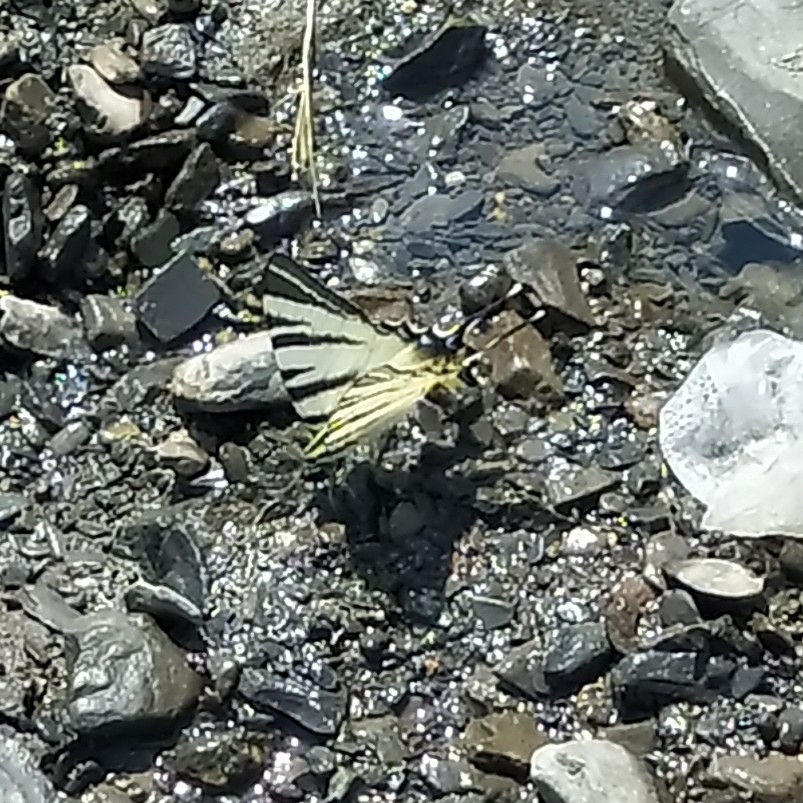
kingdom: Animalia
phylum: Arthropoda
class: Insecta
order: Lepidoptera
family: Papilionidae
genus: Iphiclides
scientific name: Iphiclides podalirius
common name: Scarce swallowtail
